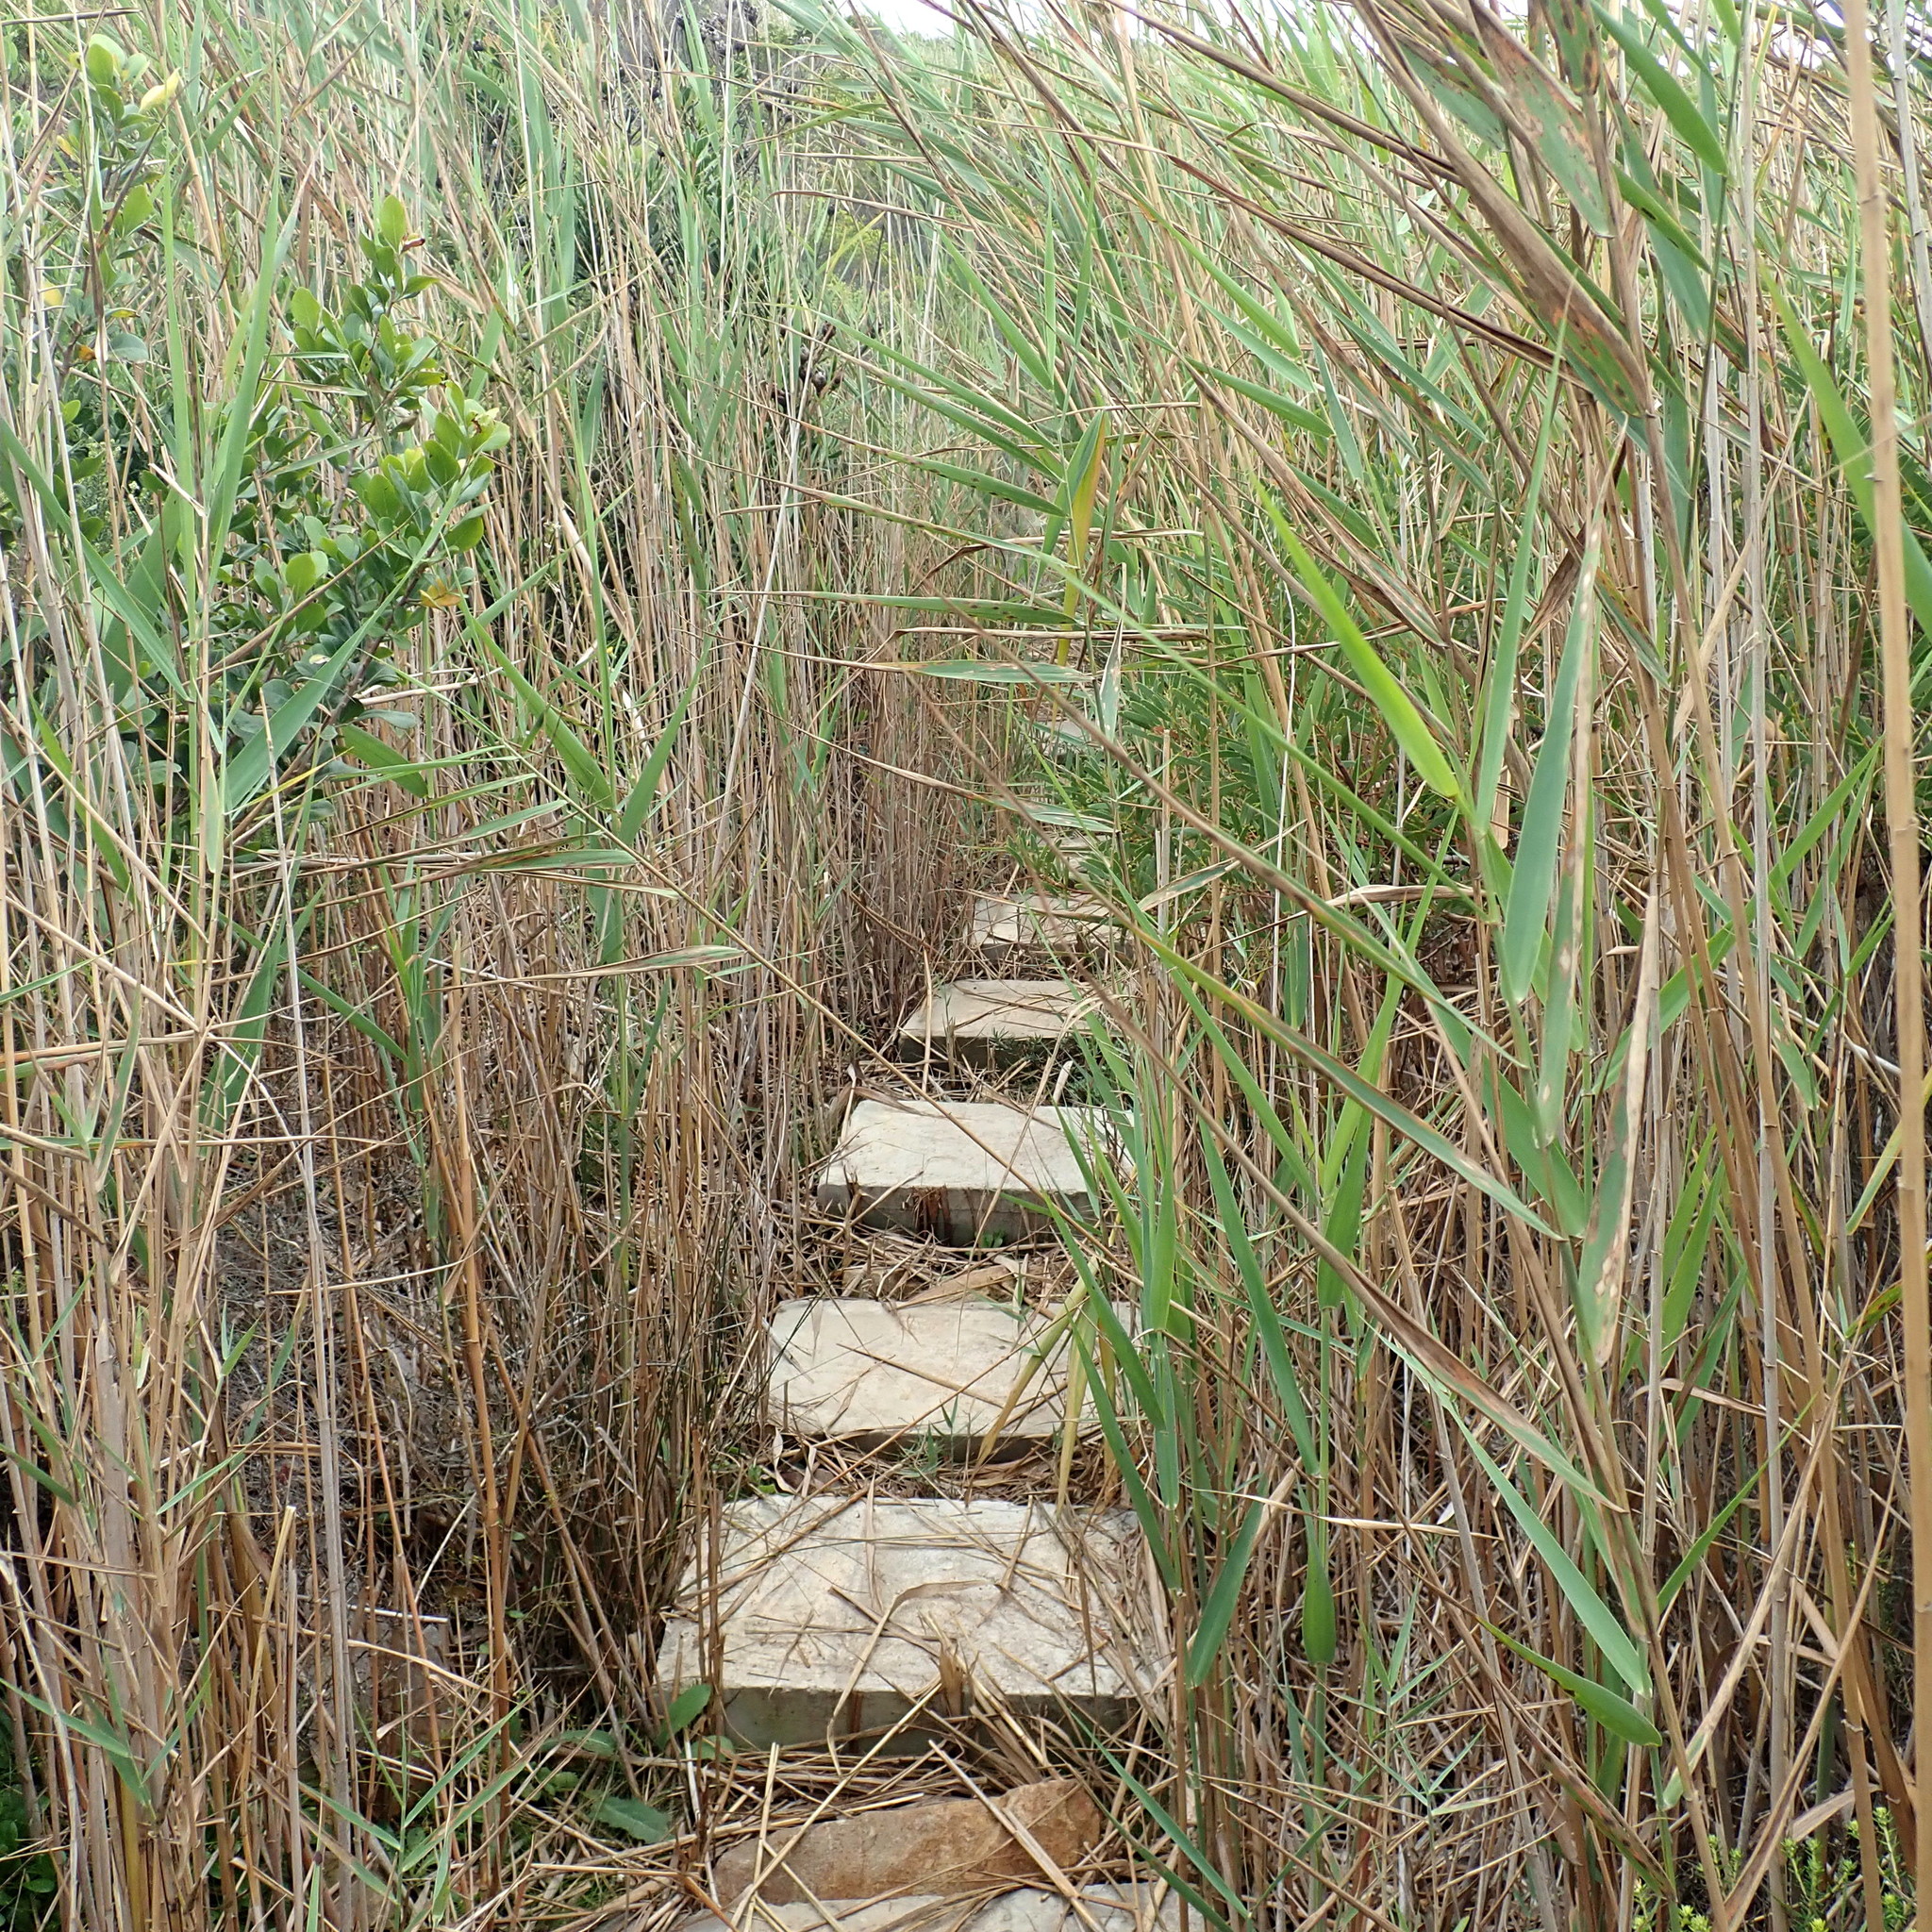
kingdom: Plantae
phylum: Tracheophyta
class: Liliopsida
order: Poales
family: Poaceae
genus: Phragmites
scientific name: Phragmites australis
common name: Common reed
